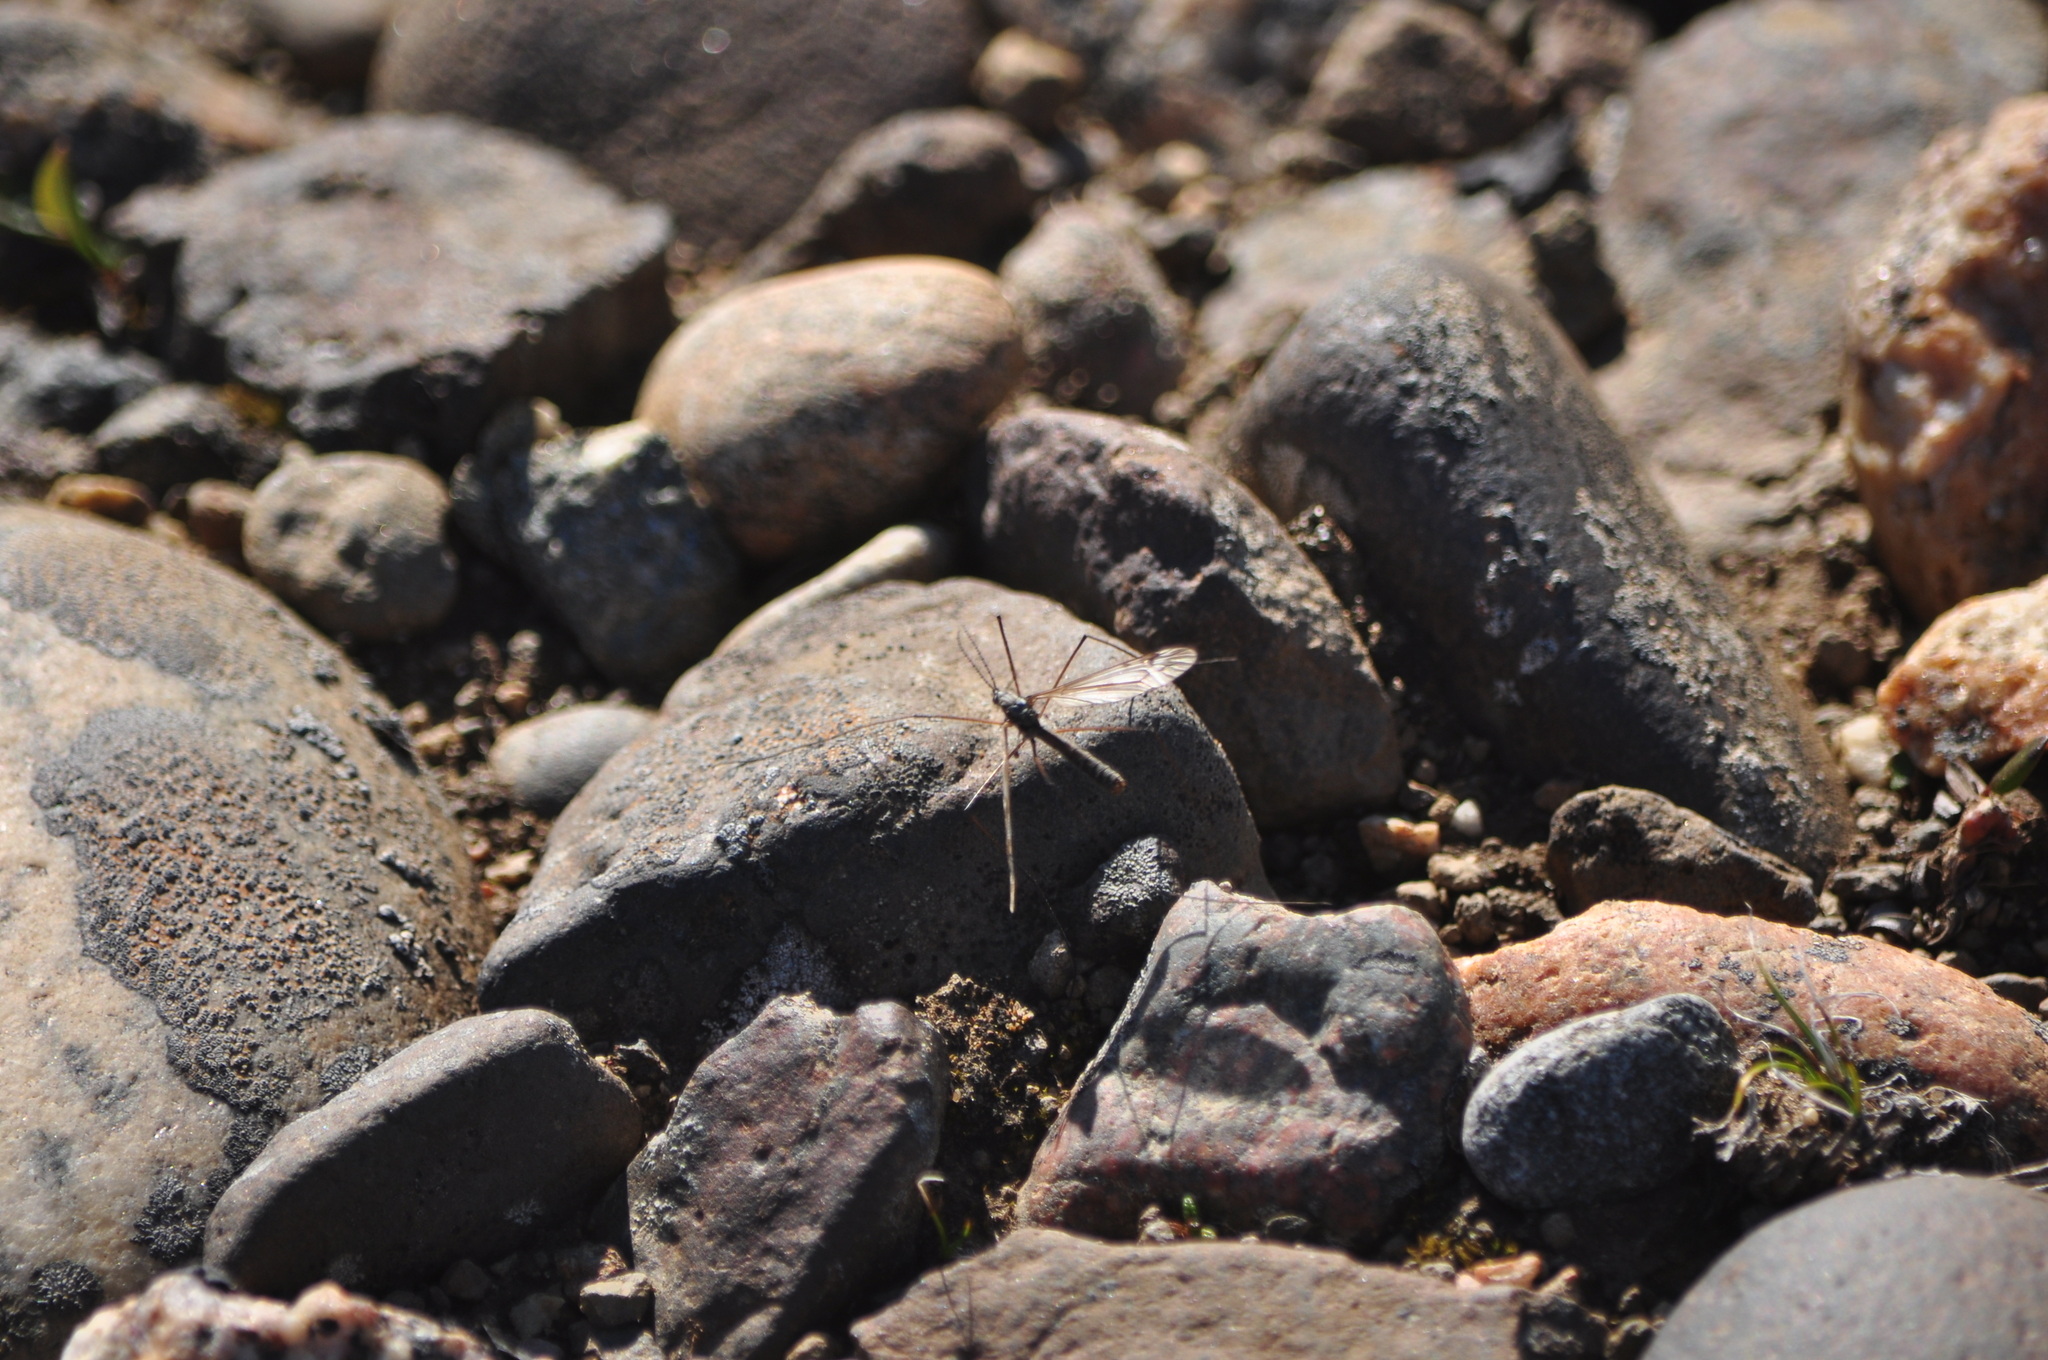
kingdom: Animalia
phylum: Arthropoda
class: Insecta
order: Diptera
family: Tipulidae
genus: Tipula
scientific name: Tipula arctica
